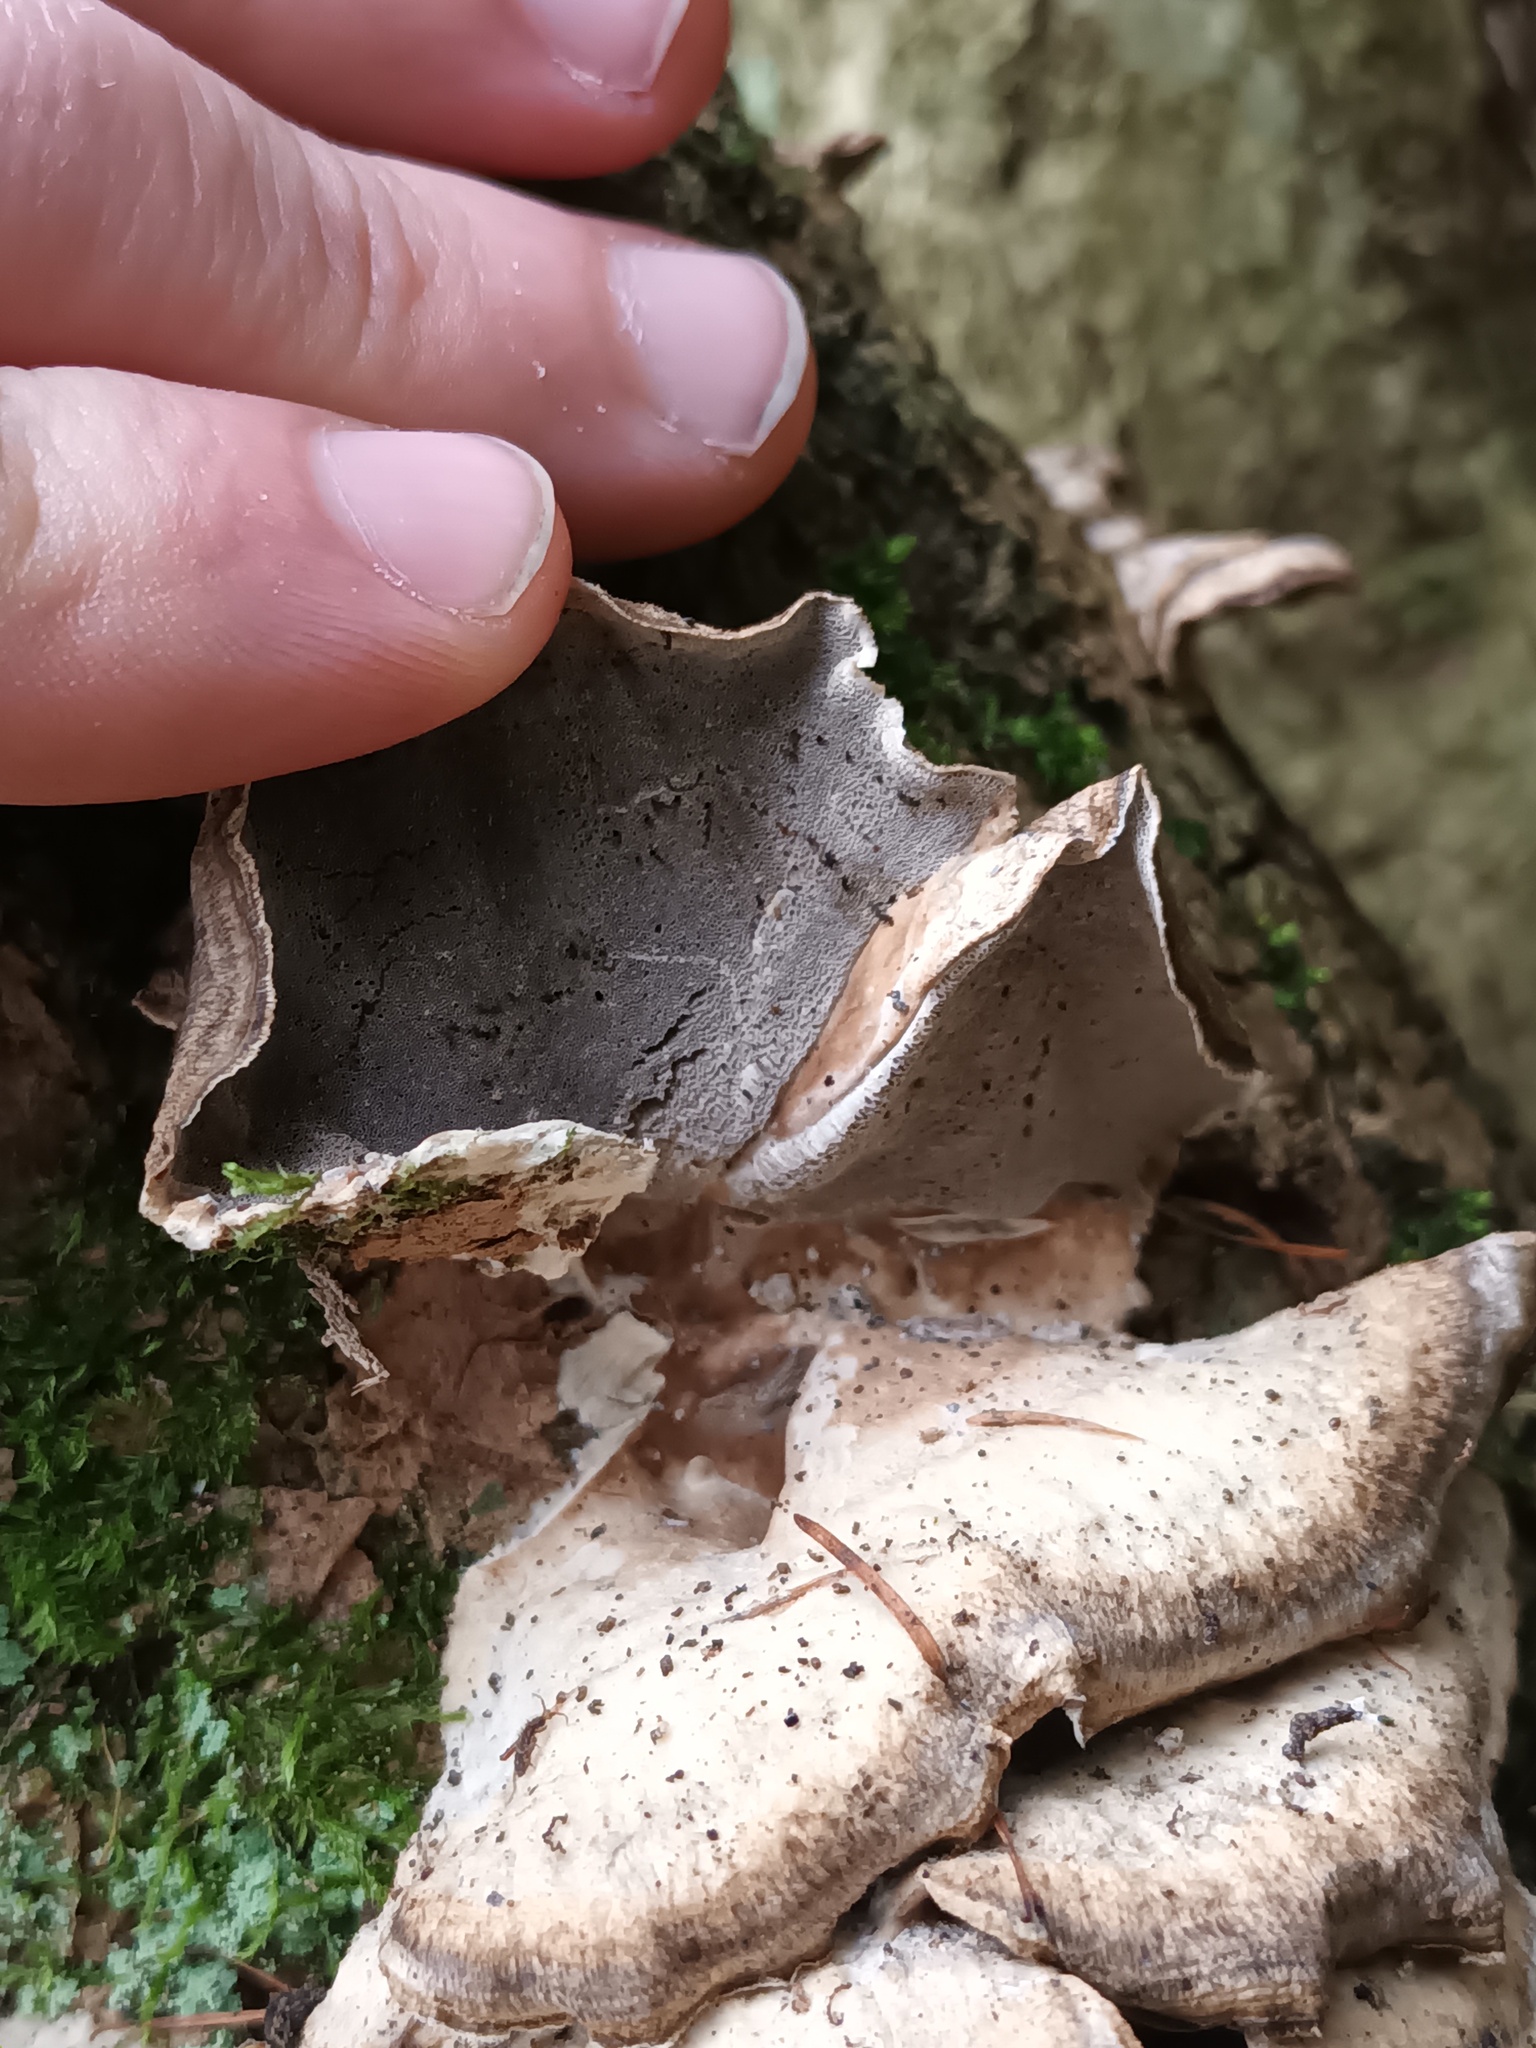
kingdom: Fungi
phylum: Basidiomycota
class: Agaricomycetes
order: Polyporales
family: Phanerochaetaceae
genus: Bjerkandera
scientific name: Bjerkandera adusta
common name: Smoky bracket
